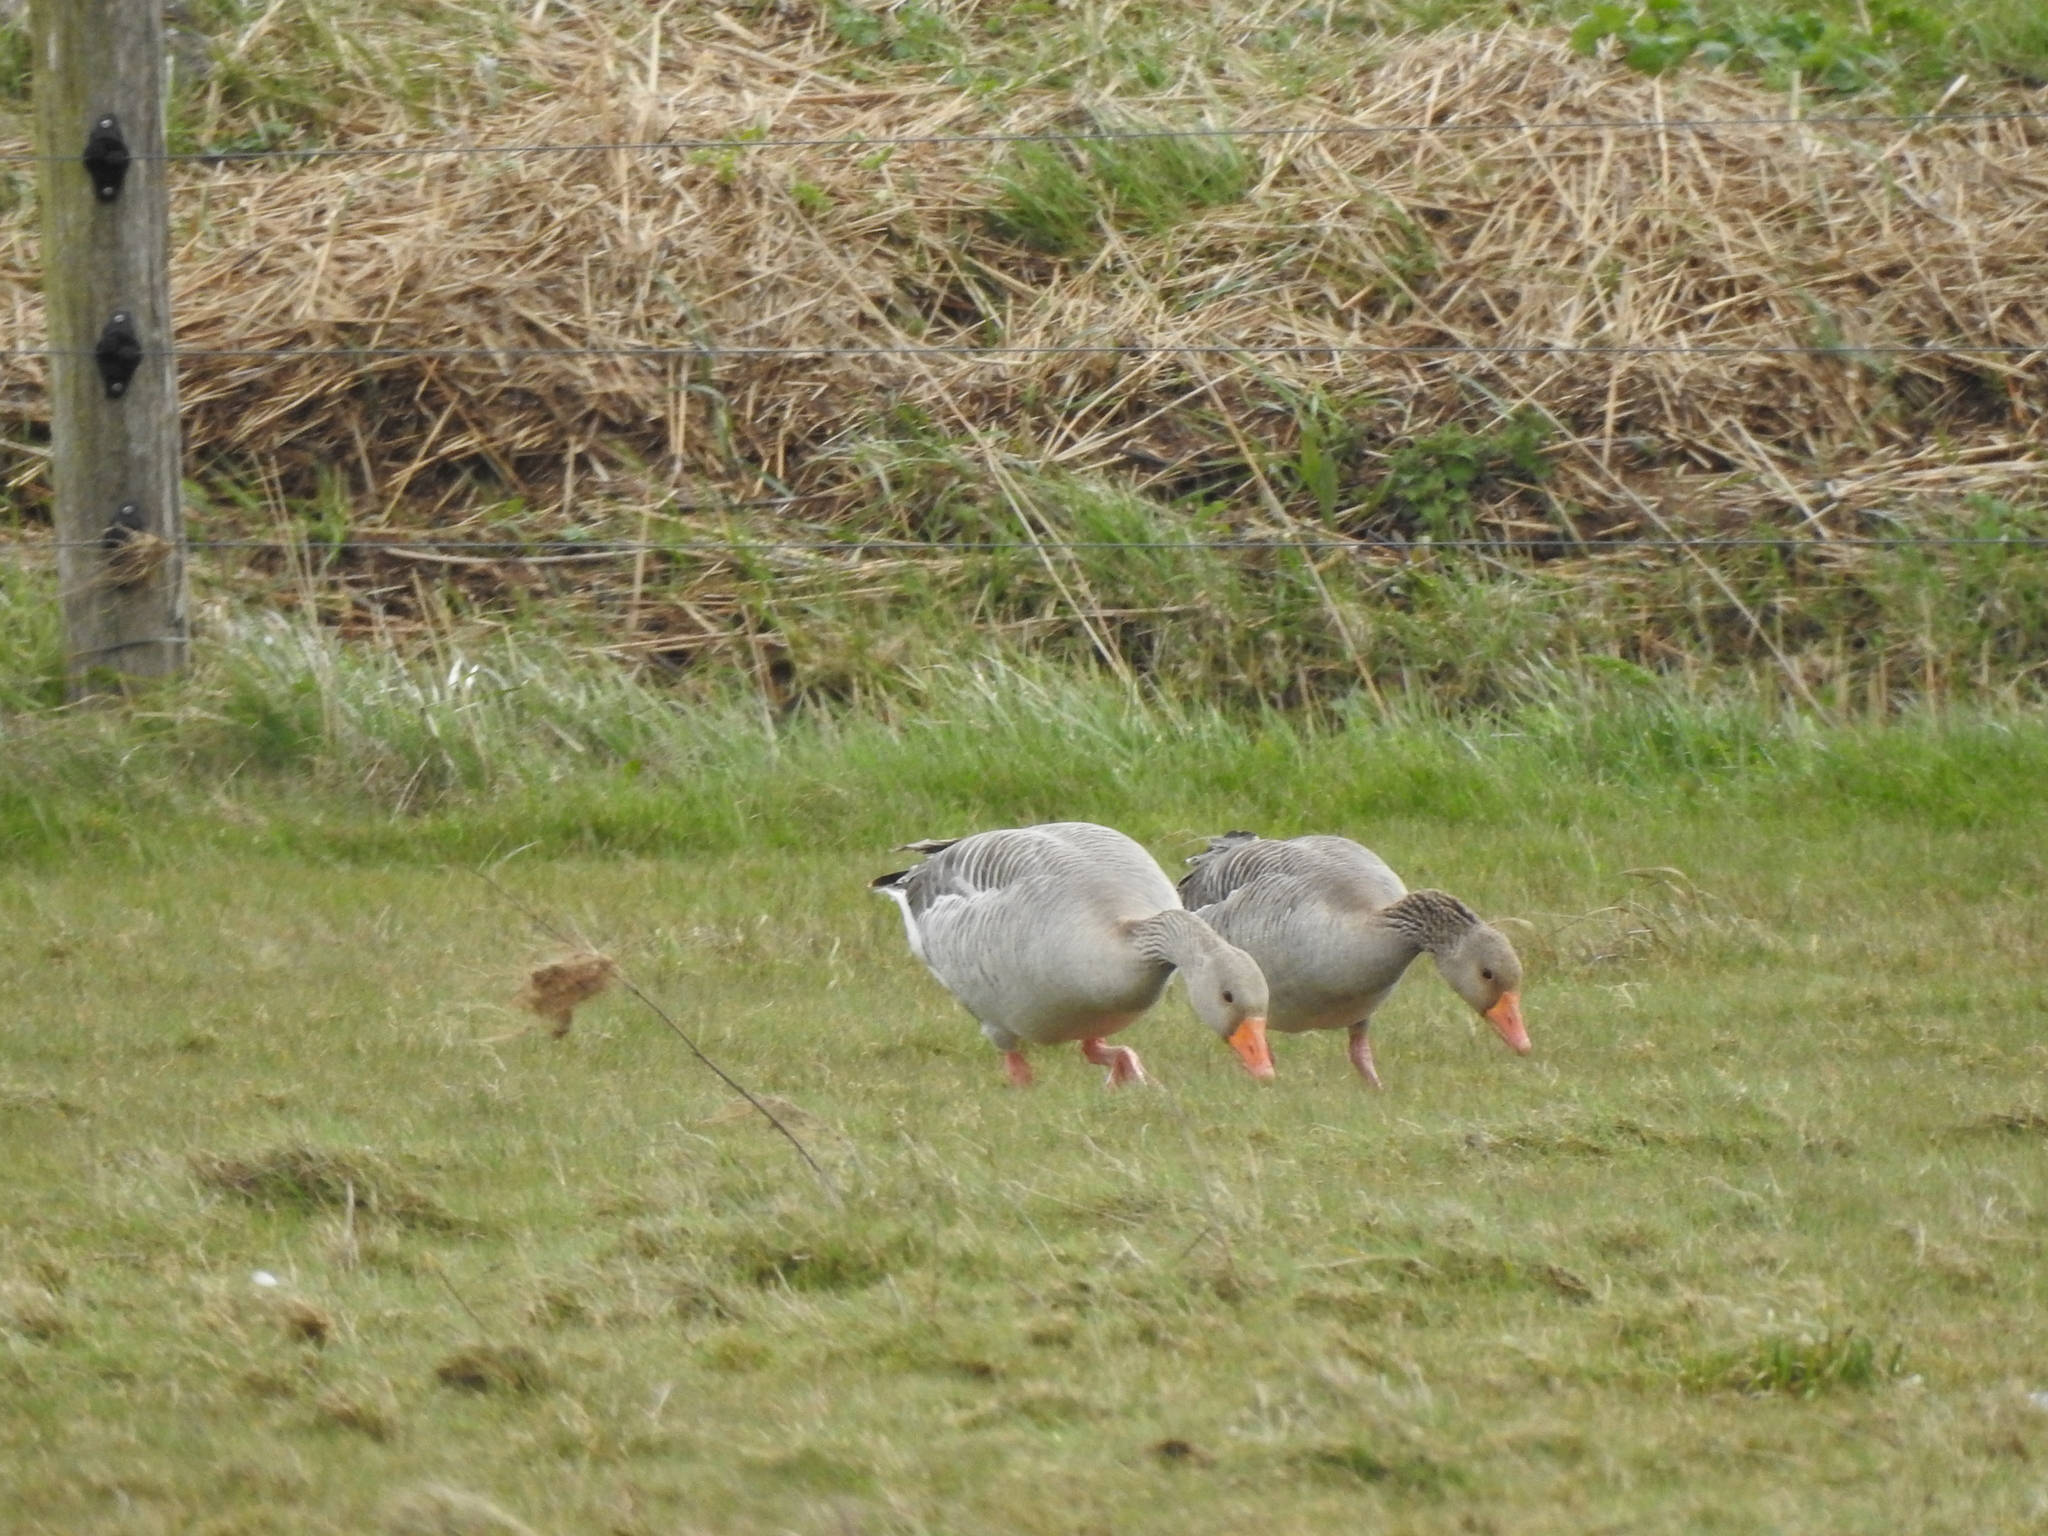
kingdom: Animalia
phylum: Chordata
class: Aves
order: Anseriformes
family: Anatidae
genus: Anser
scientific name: Anser anser
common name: Greylag goose
